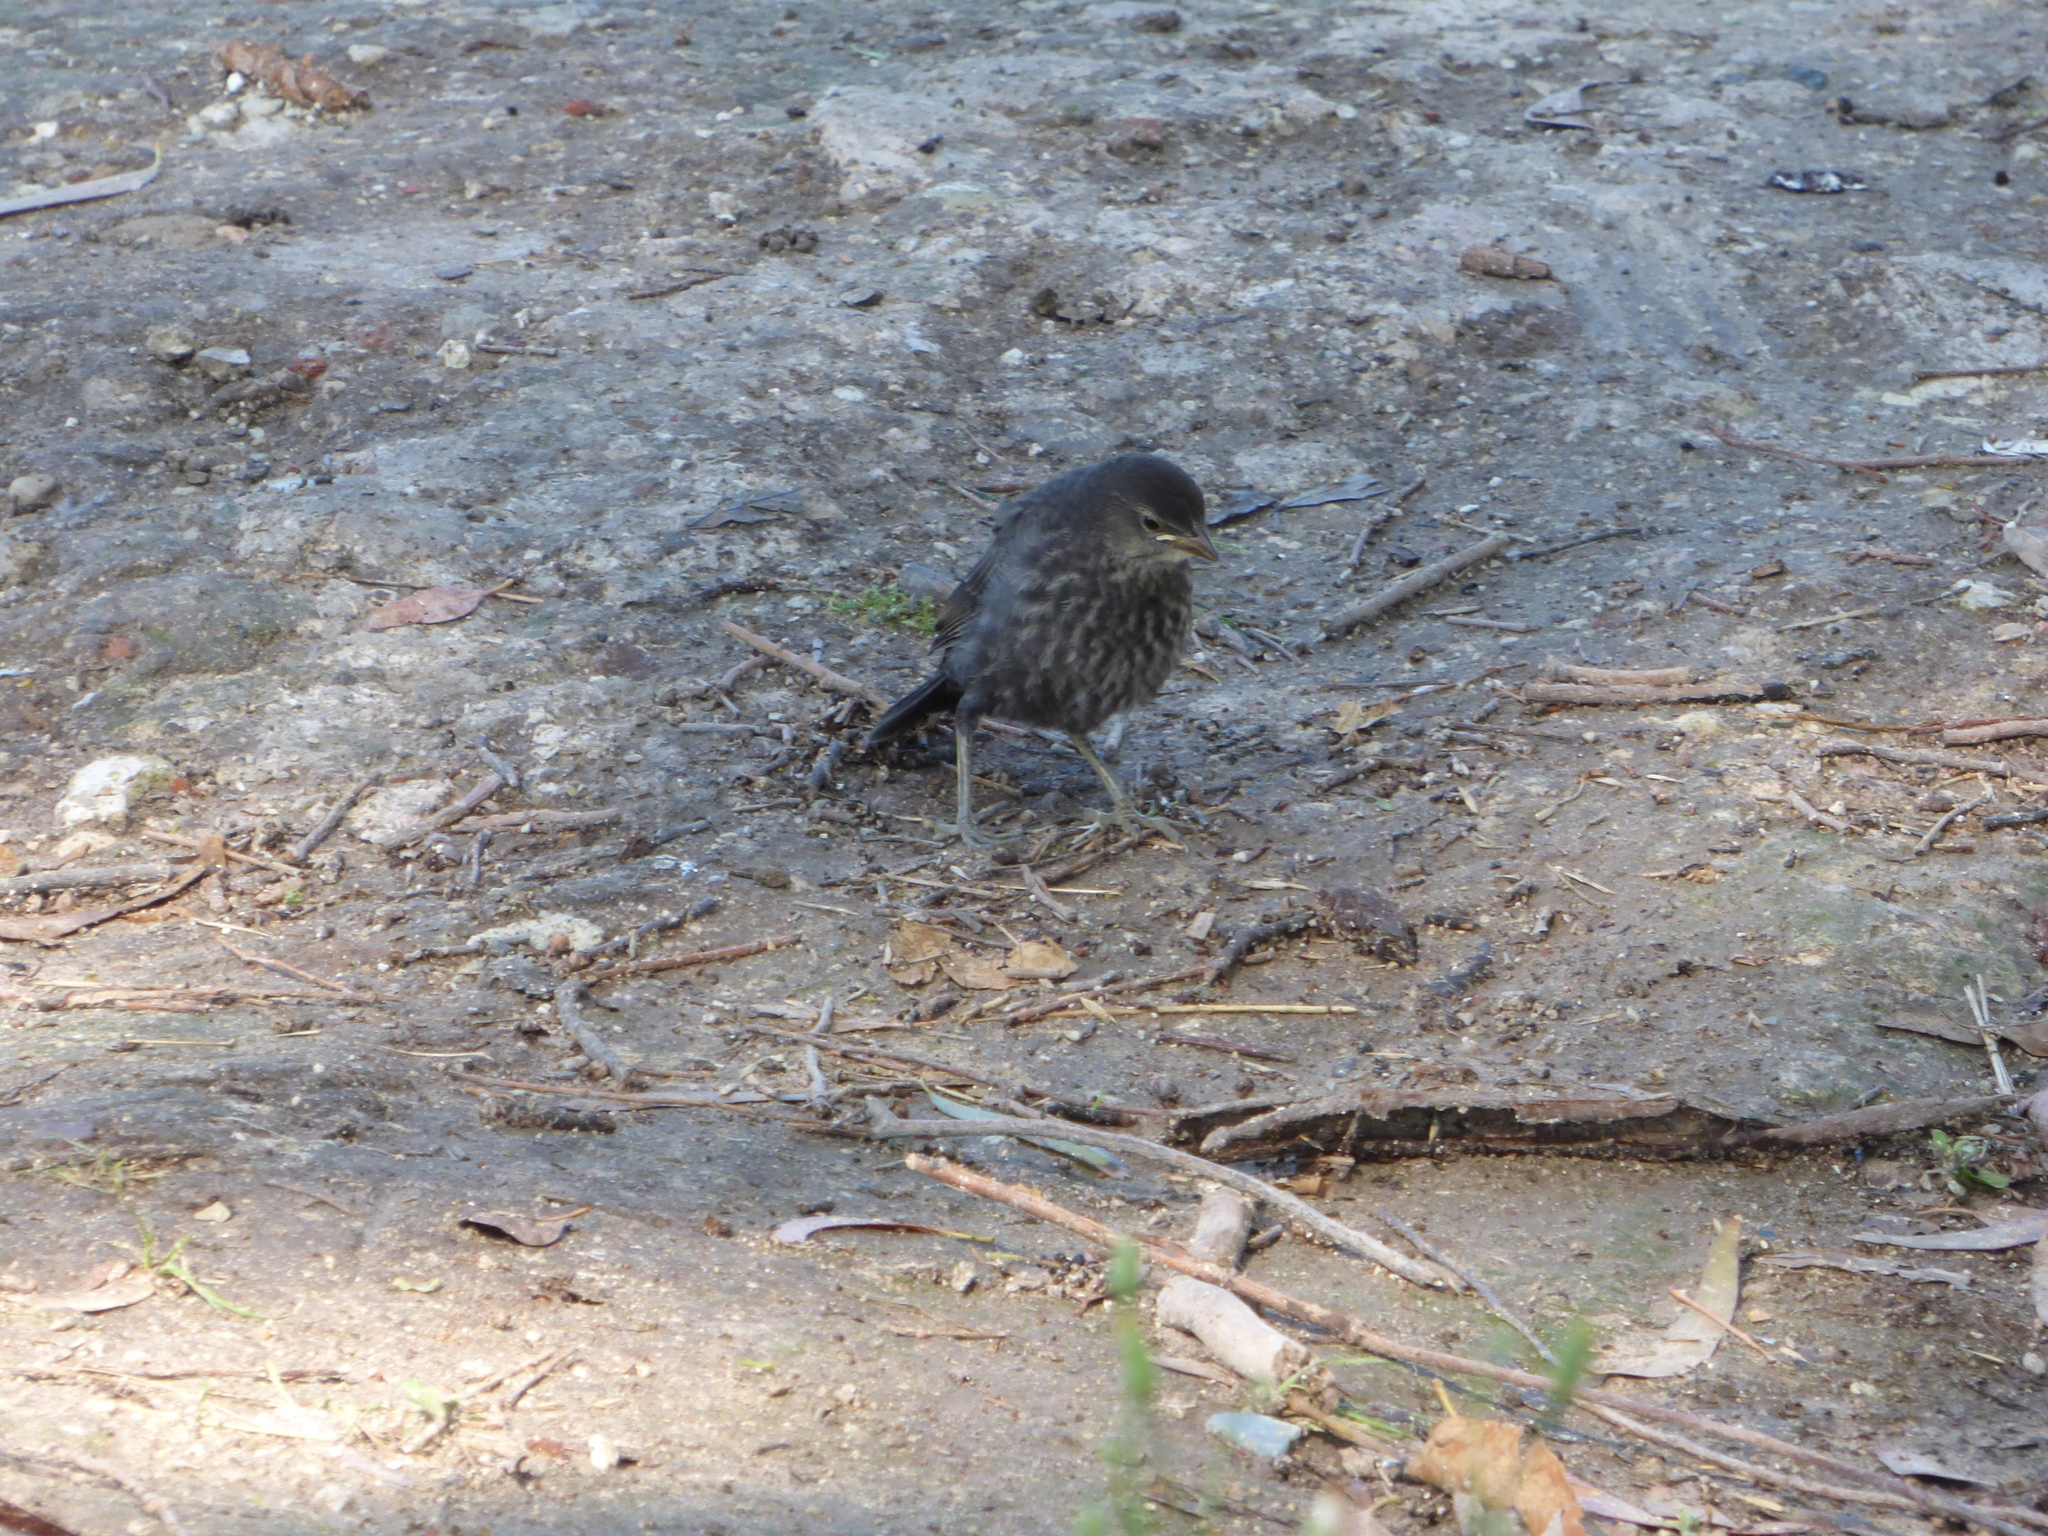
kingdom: Animalia
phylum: Chordata
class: Aves
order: Passeriformes
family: Icteridae
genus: Molothrus
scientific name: Molothrus bonariensis
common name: Shiny cowbird
